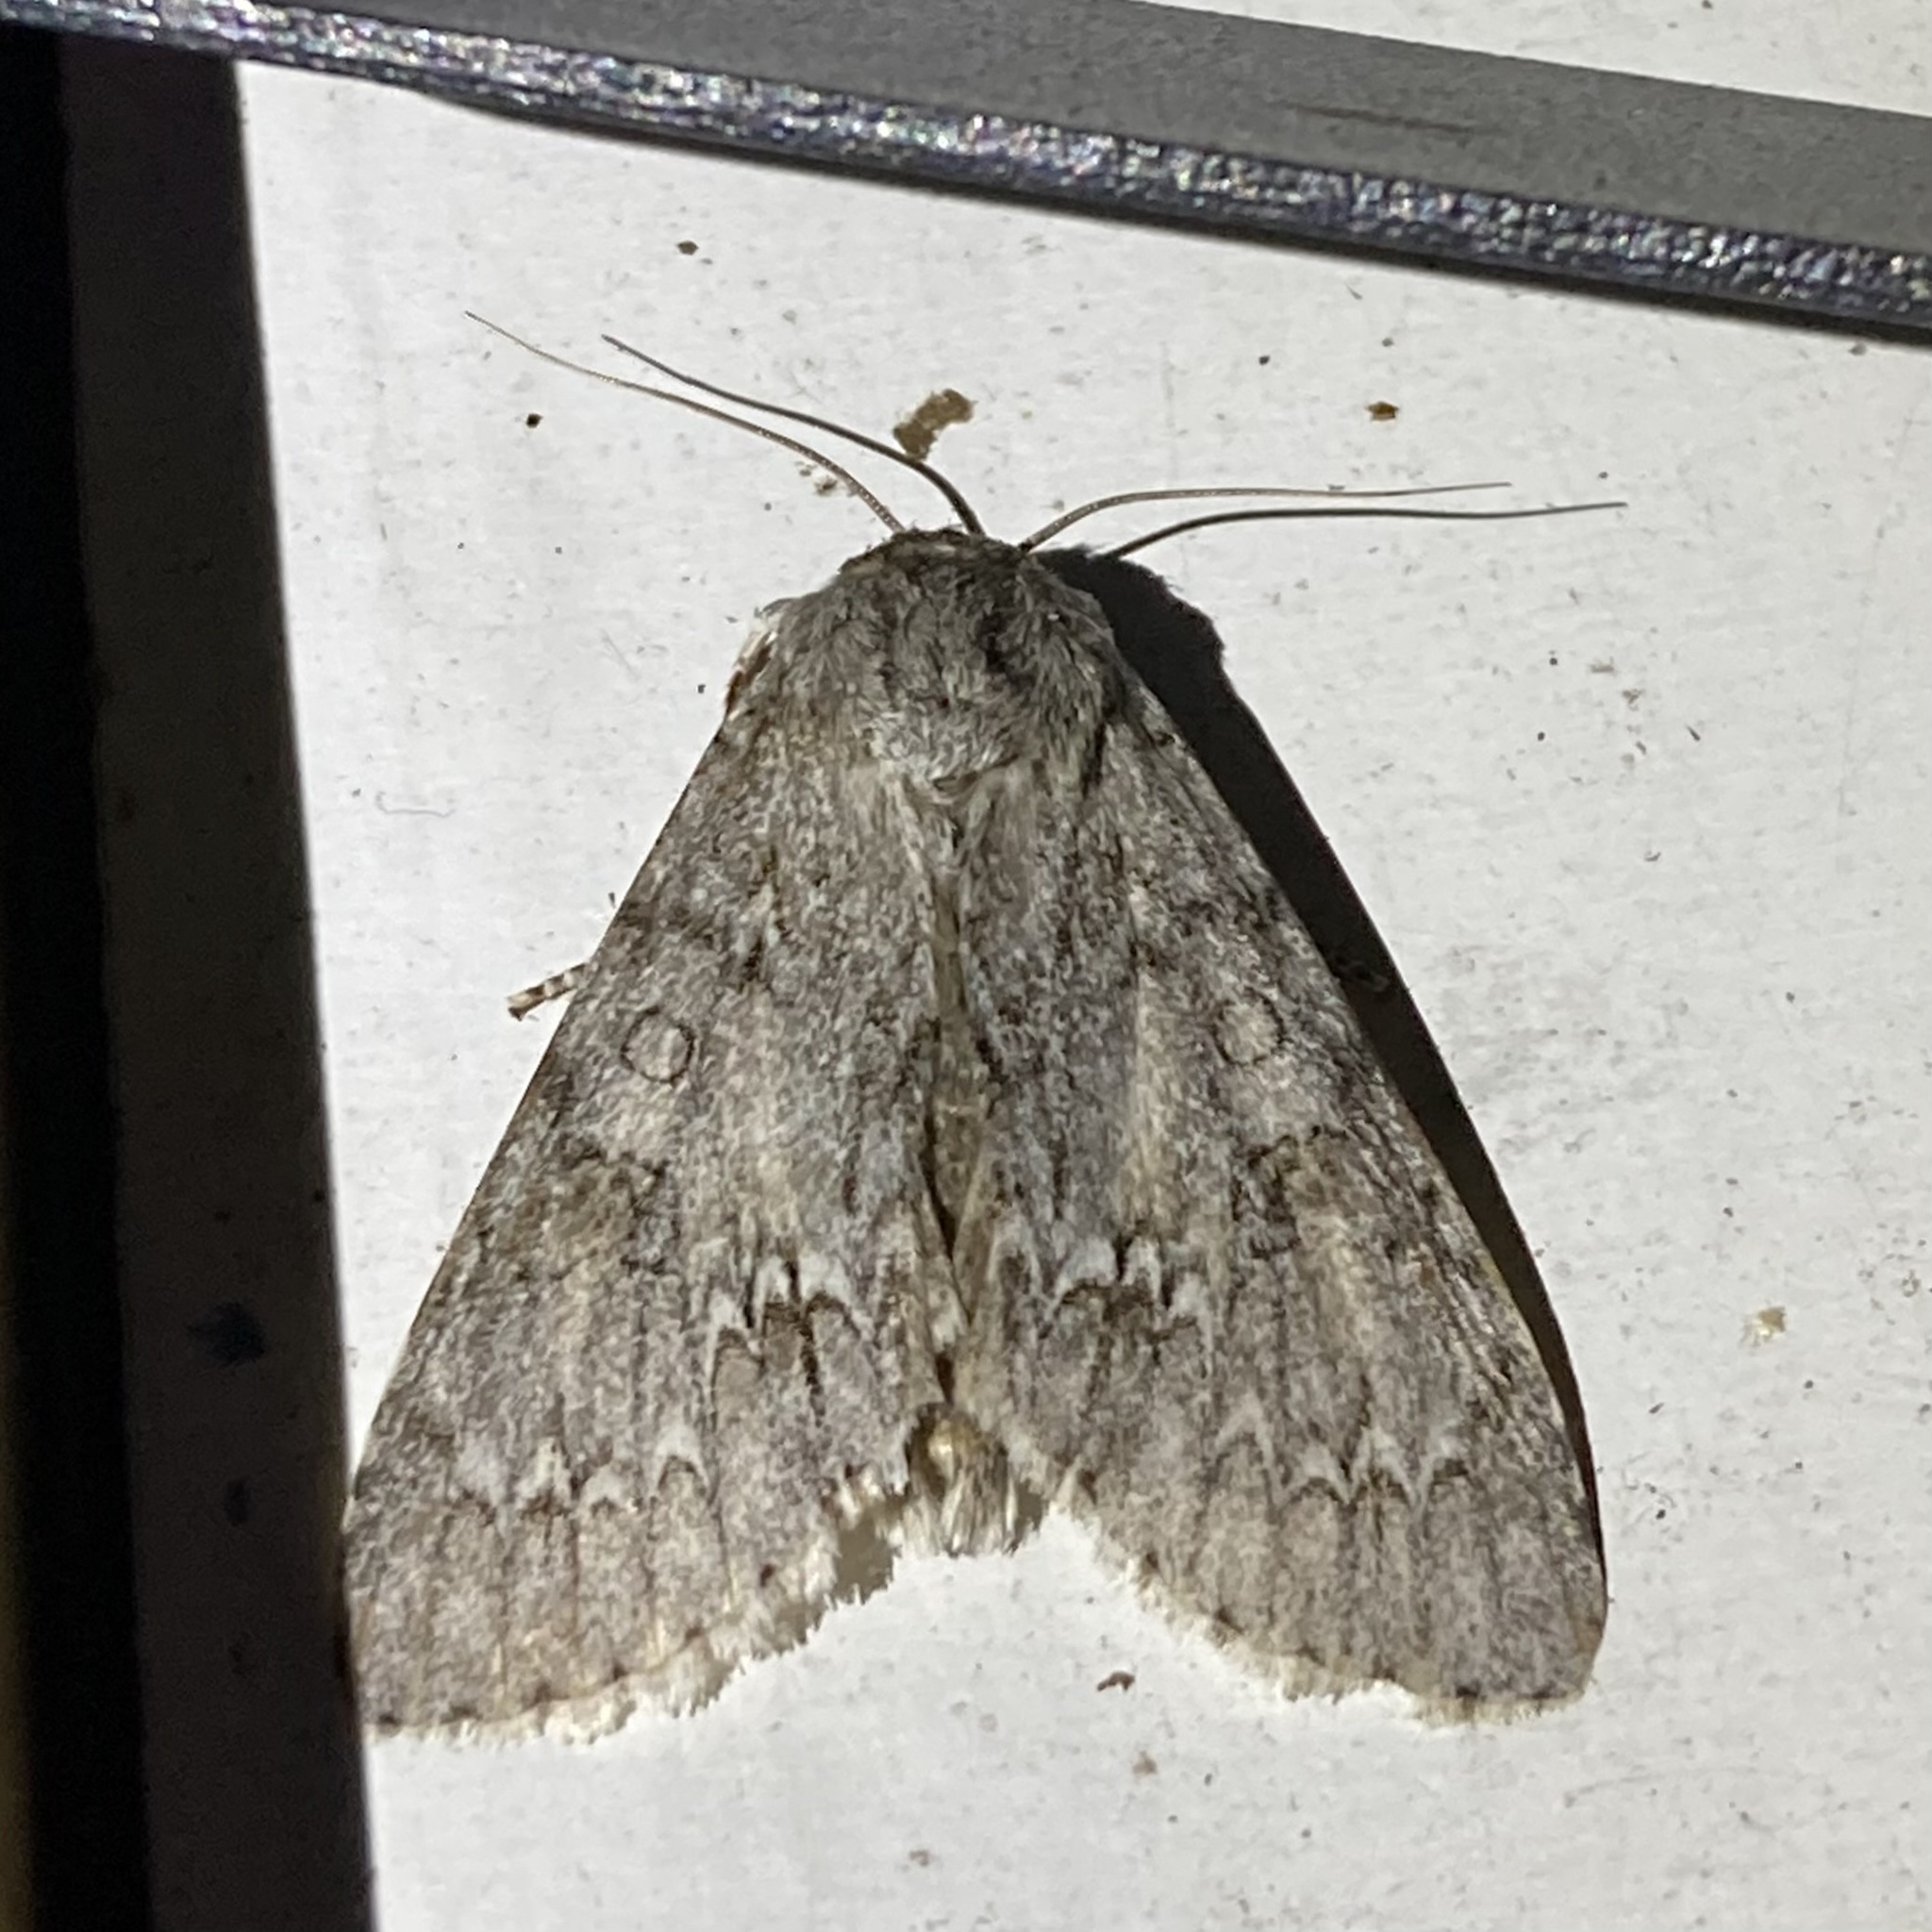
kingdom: Animalia
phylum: Arthropoda
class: Insecta
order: Lepidoptera
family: Noctuidae
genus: Acronicta
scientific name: Acronicta americana
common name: American dagger
